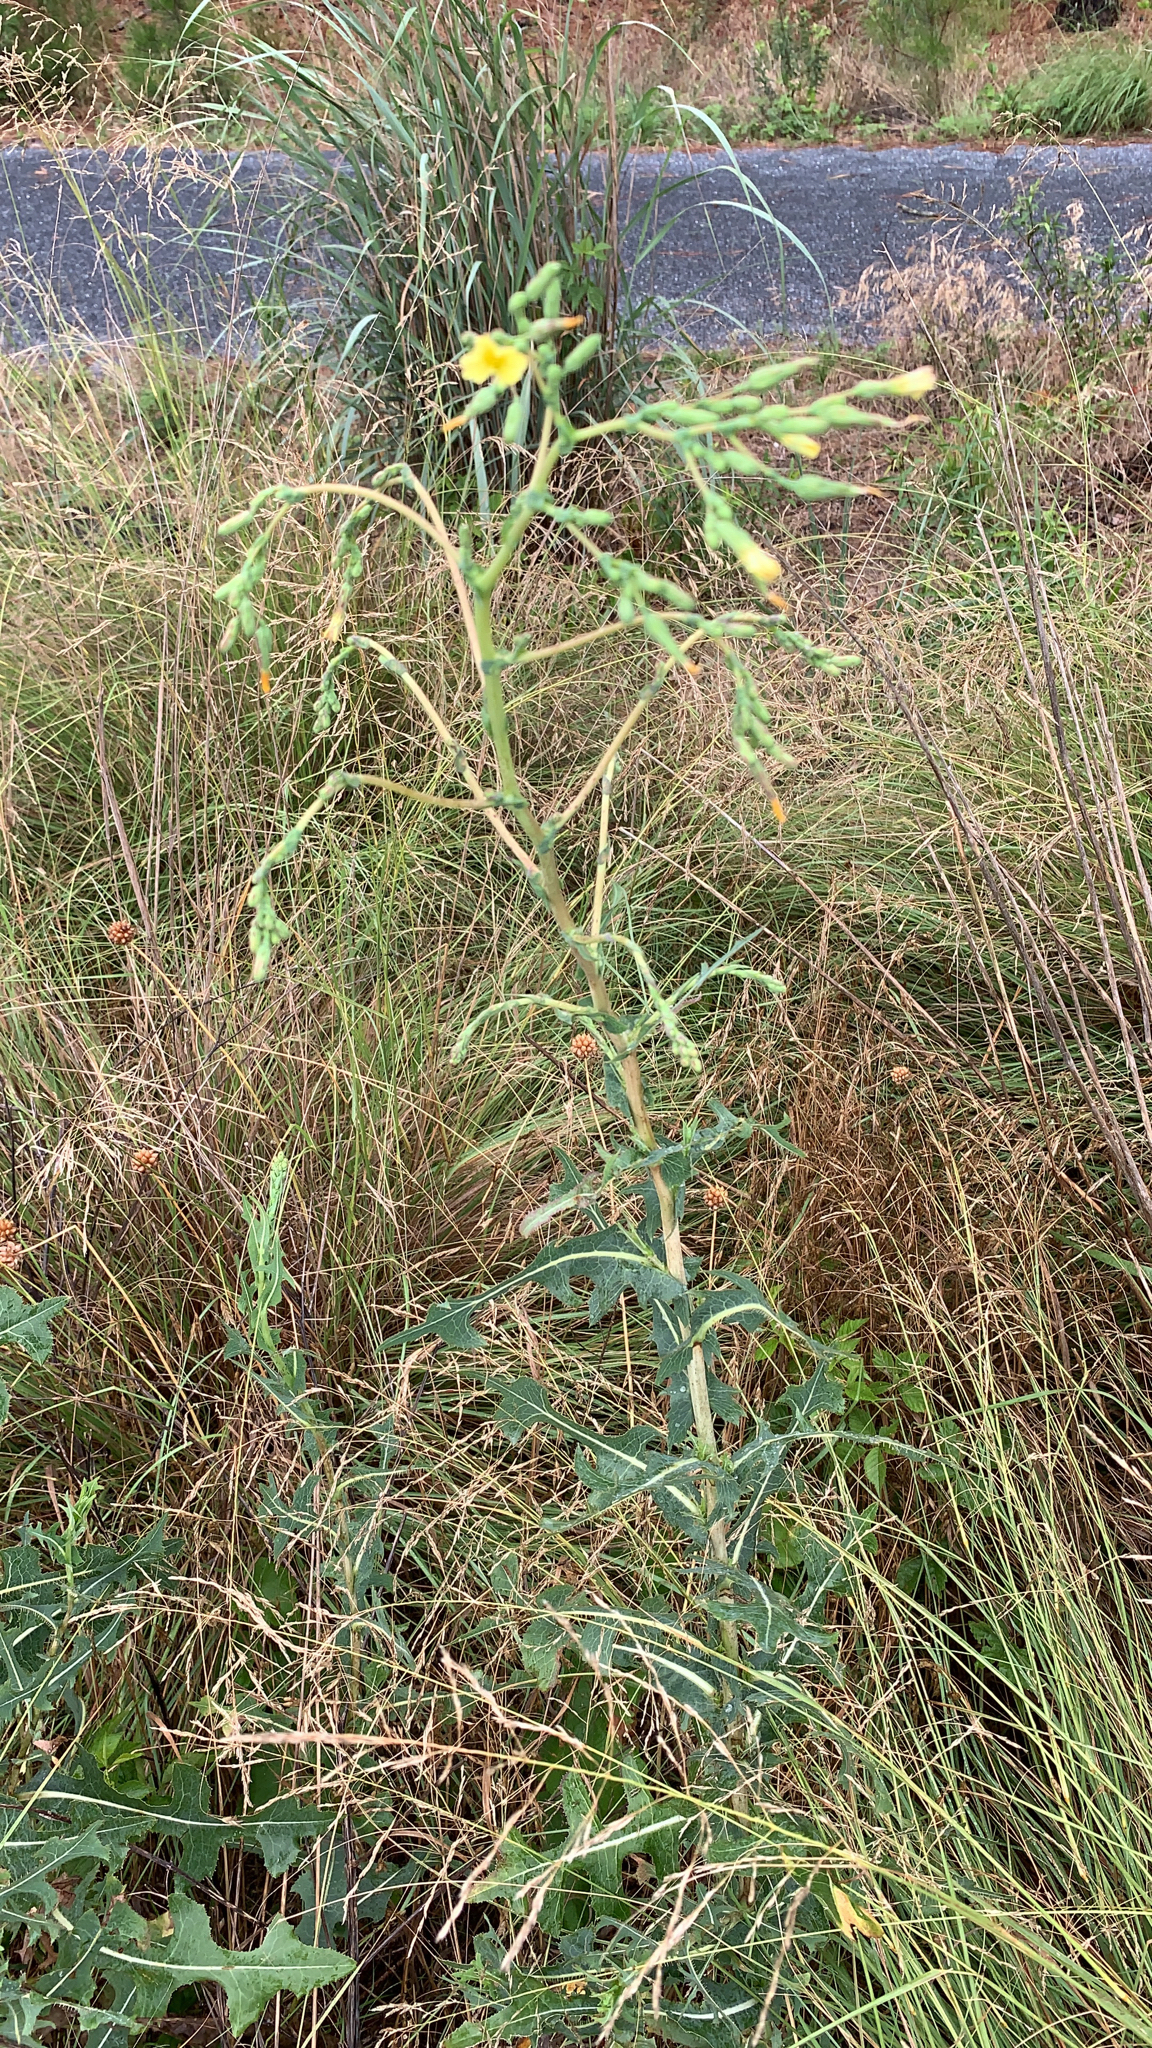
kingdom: Plantae
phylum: Tracheophyta
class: Magnoliopsida
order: Asterales
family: Asteraceae
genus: Lactuca
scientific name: Lactuca serriola
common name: Prickly lettuce
